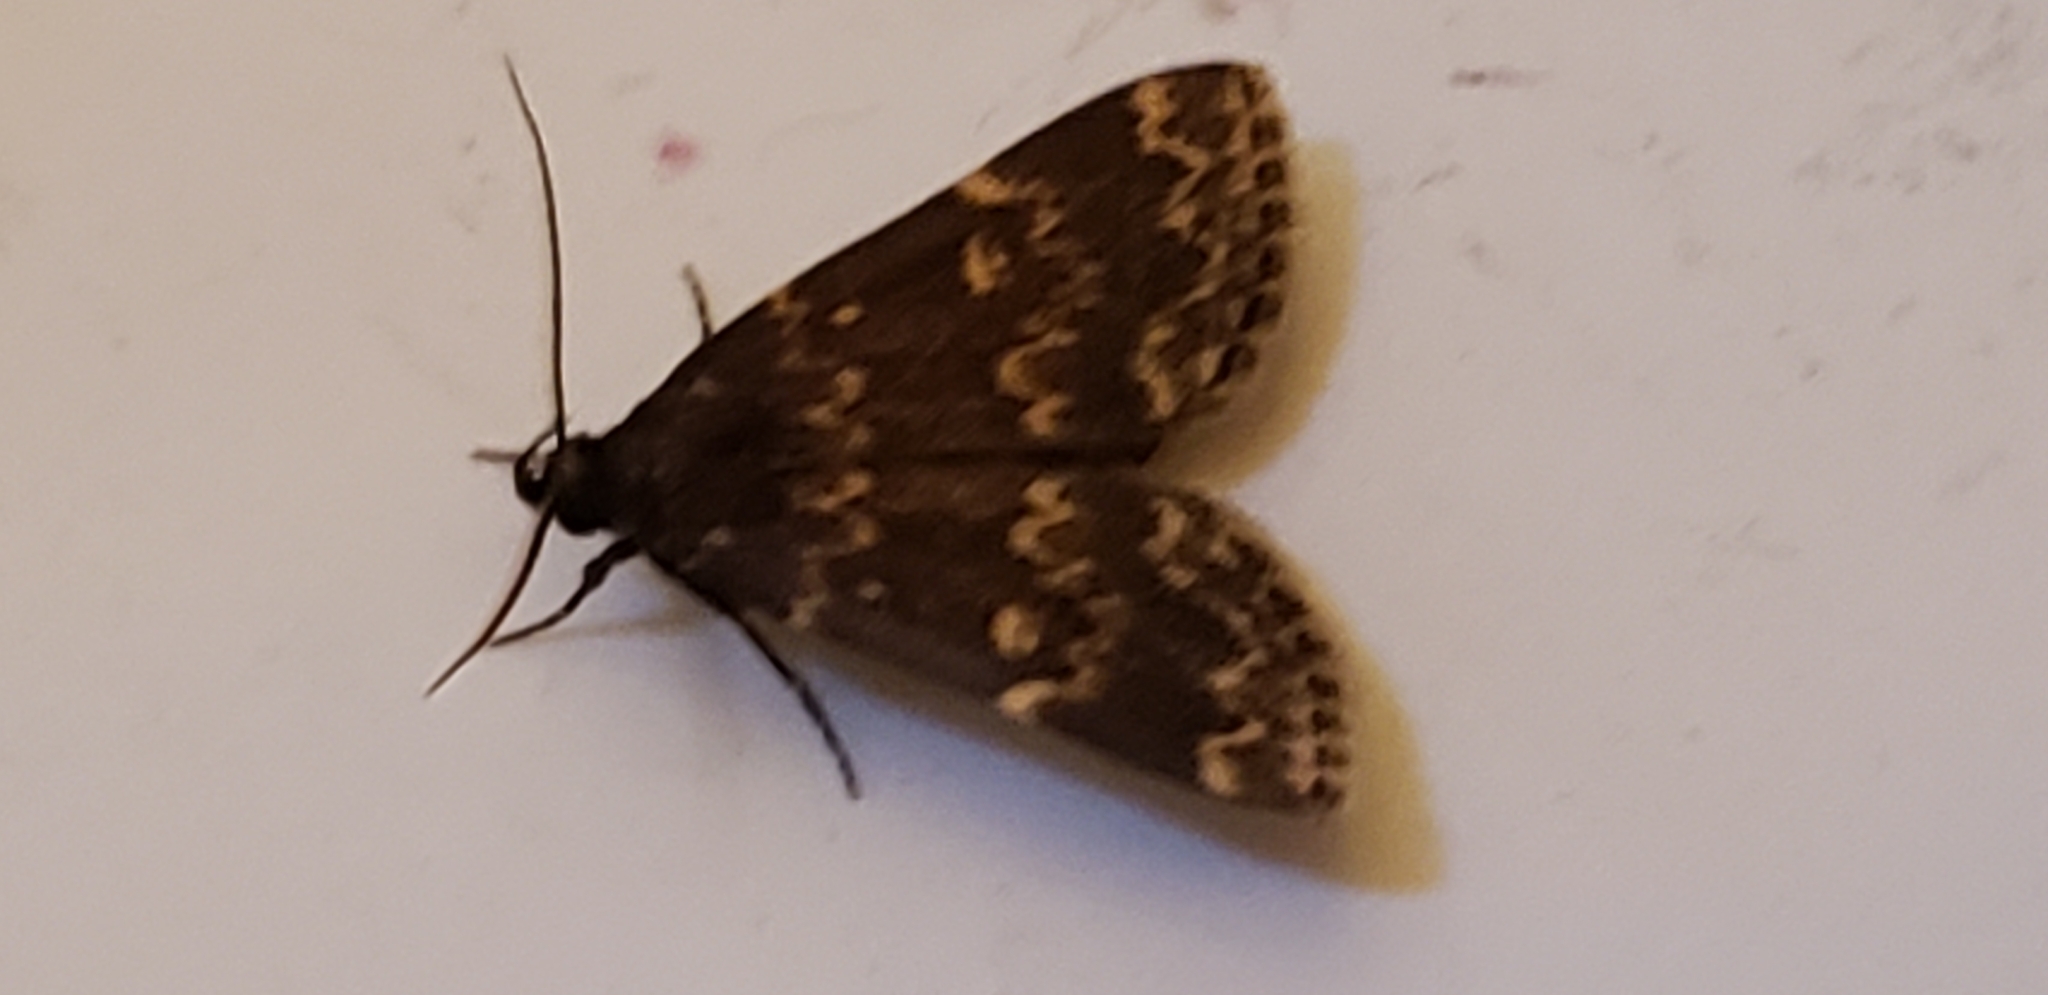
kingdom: Animalia
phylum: Arthropoda
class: Insecta
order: Lepidoptera
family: Erebidae
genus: Idia
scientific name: Idia lubricalis
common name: Twin-striped tabby
